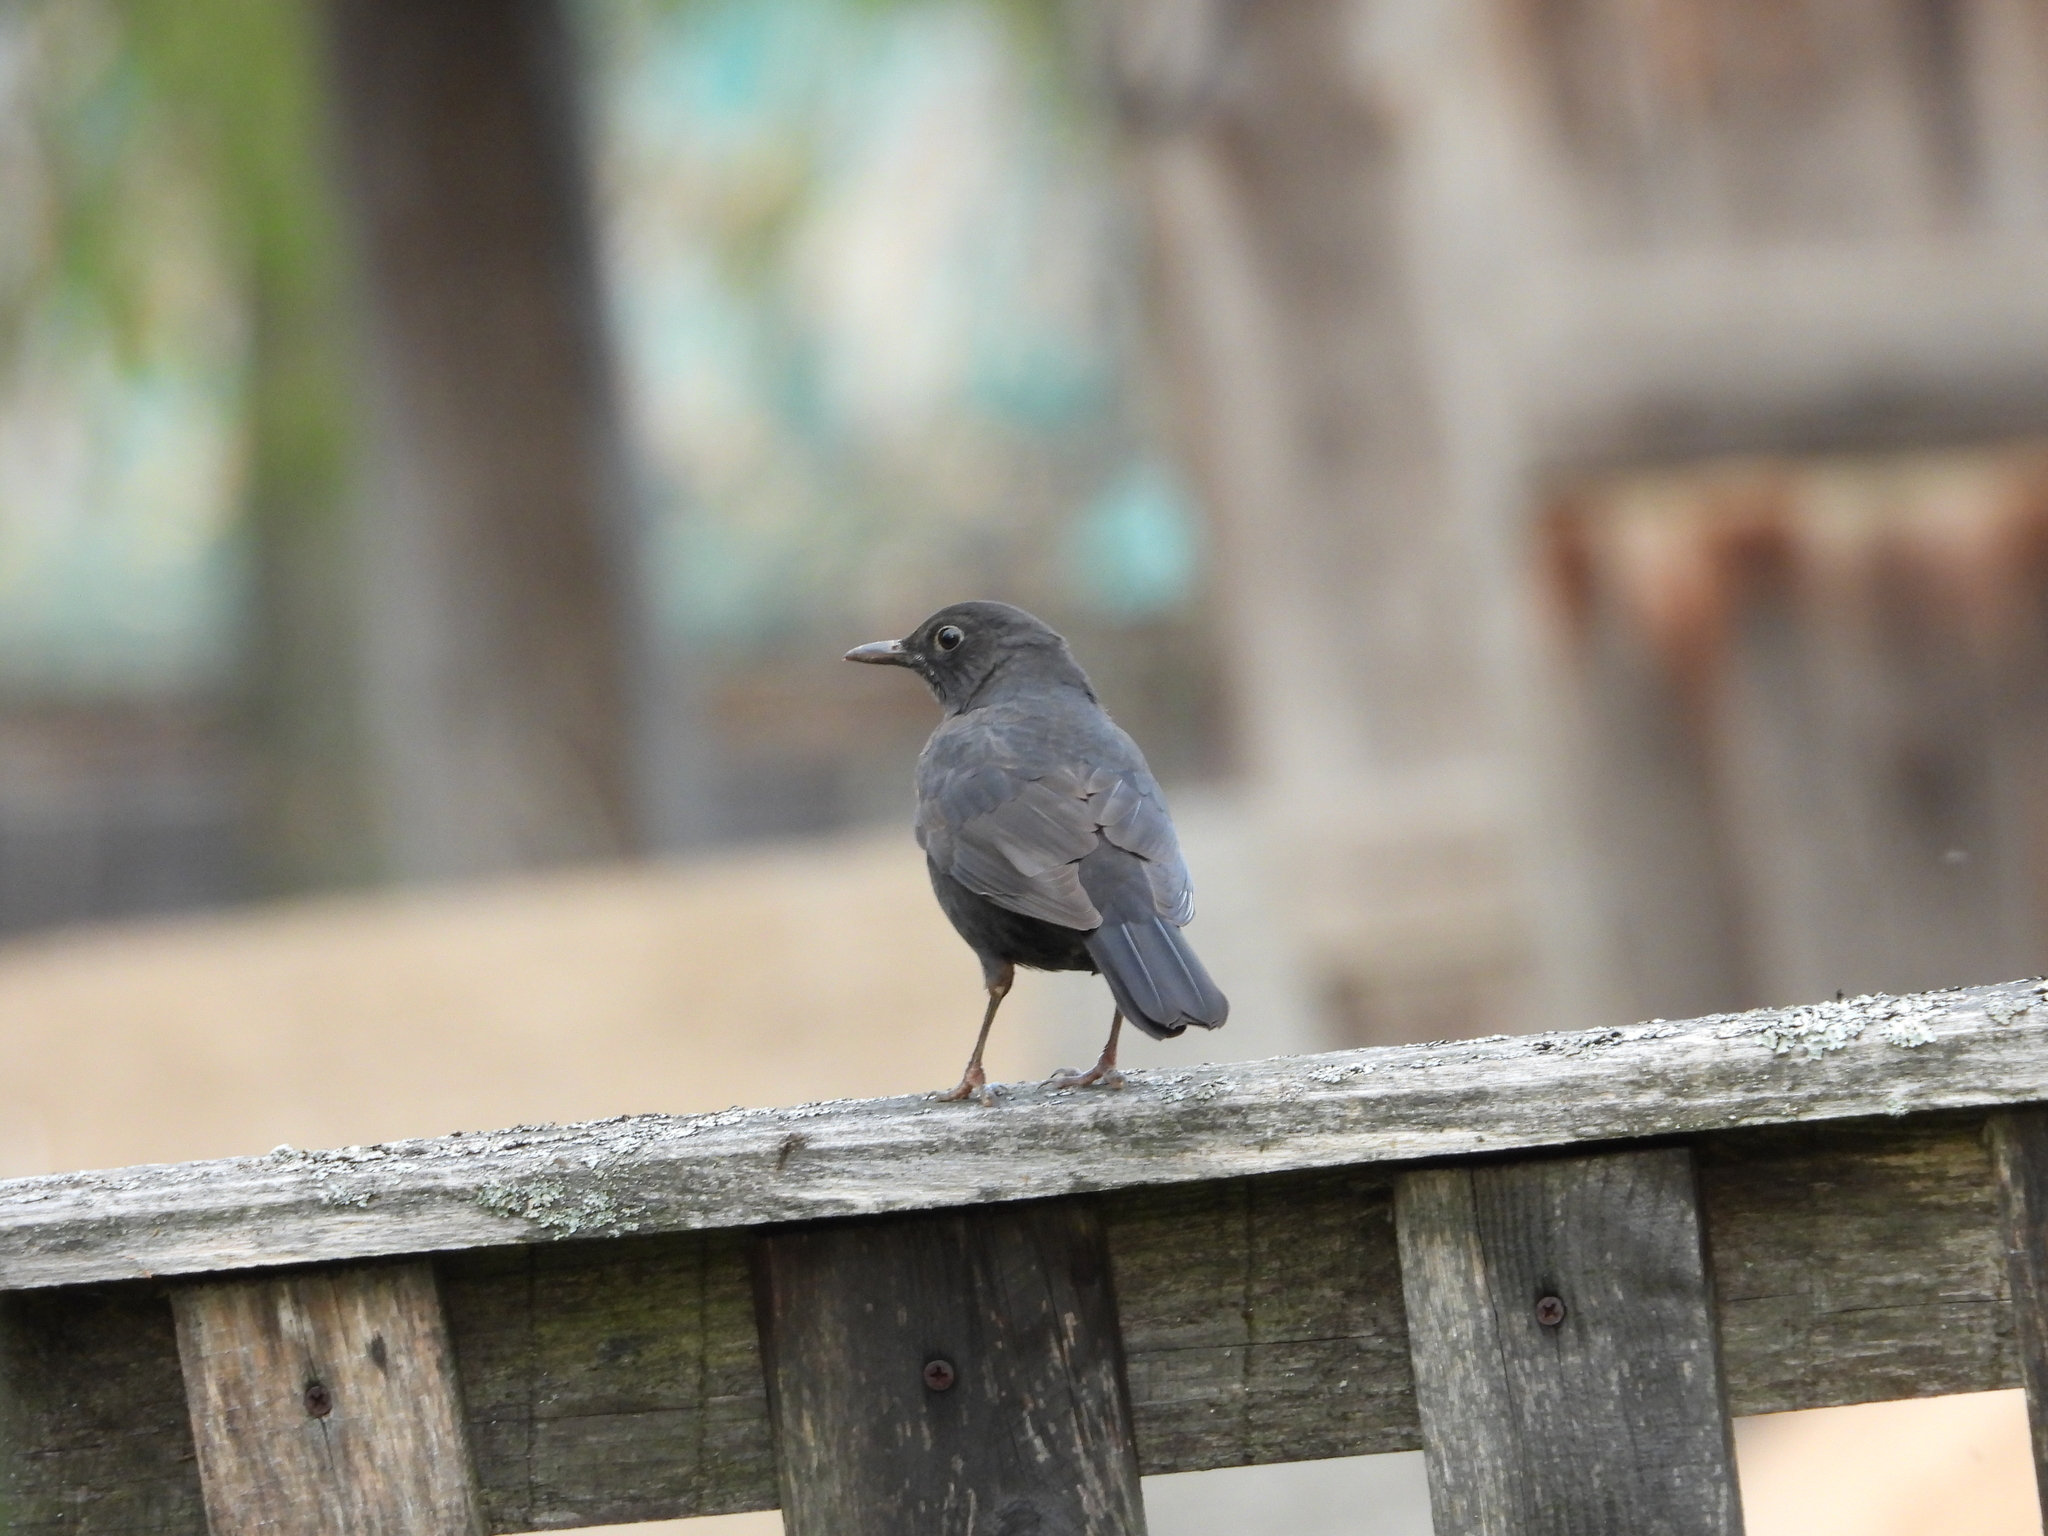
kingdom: Animalia
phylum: Chordata
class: Aves
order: Passeriformes
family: Turdidae
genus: Turdus
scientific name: Turdus merula
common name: Common blackbird
